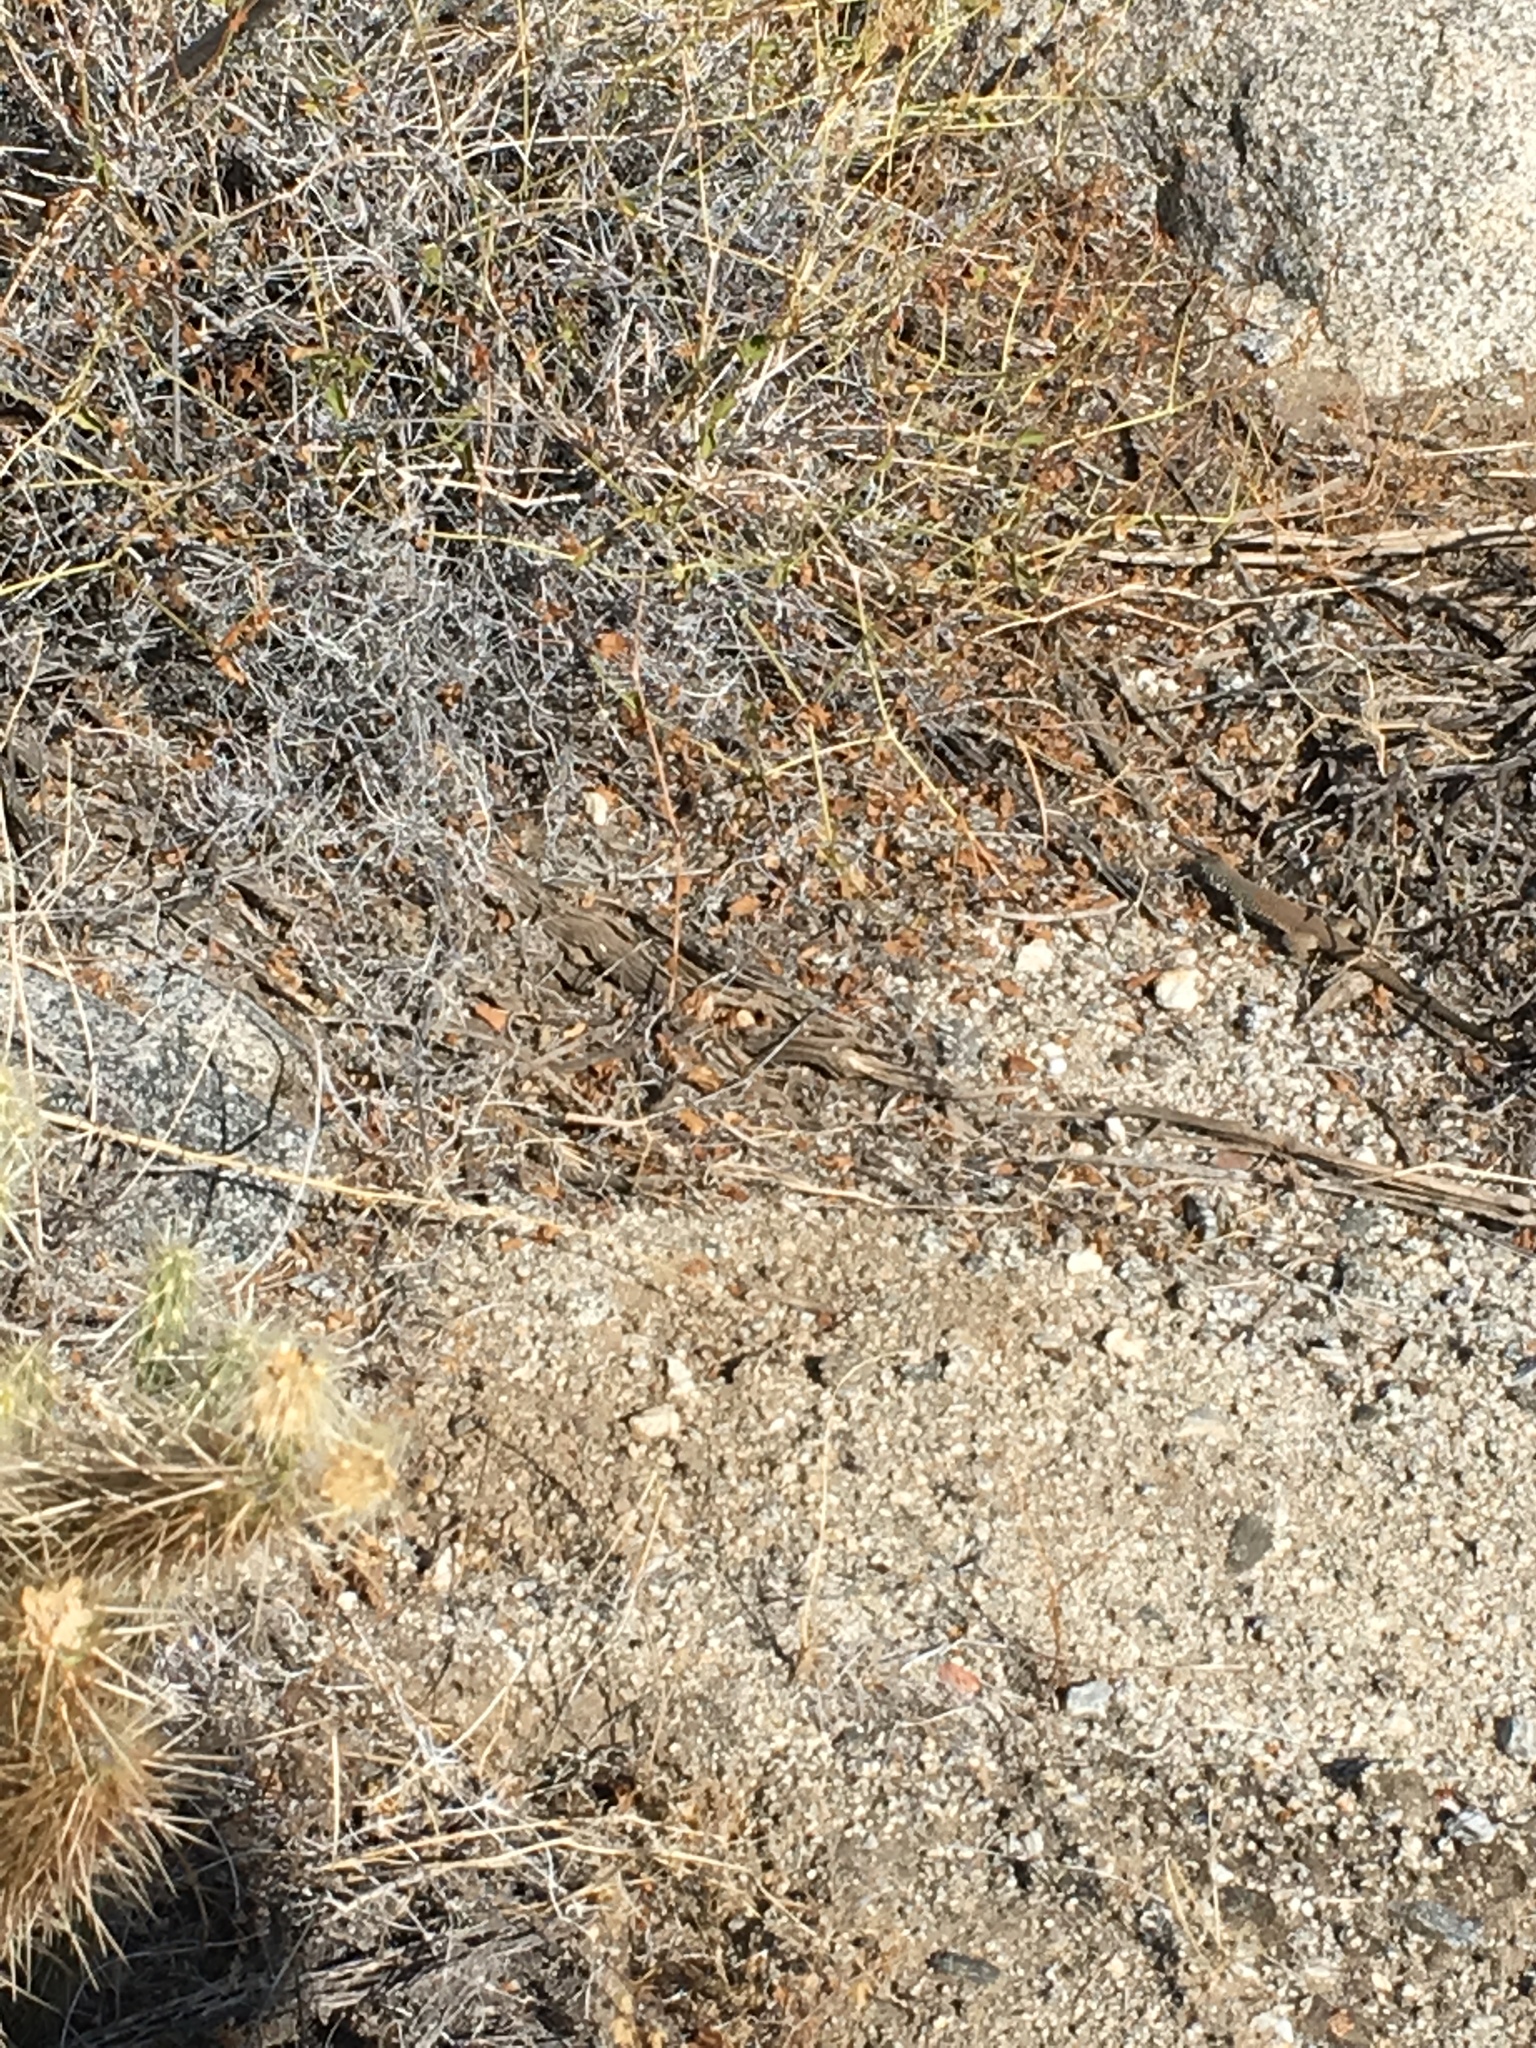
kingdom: Animalia
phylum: Chordata
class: Squamata
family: Teiidae
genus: Aspidoscelis
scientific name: Aspidoscelis tigris
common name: Tiger whiptail
